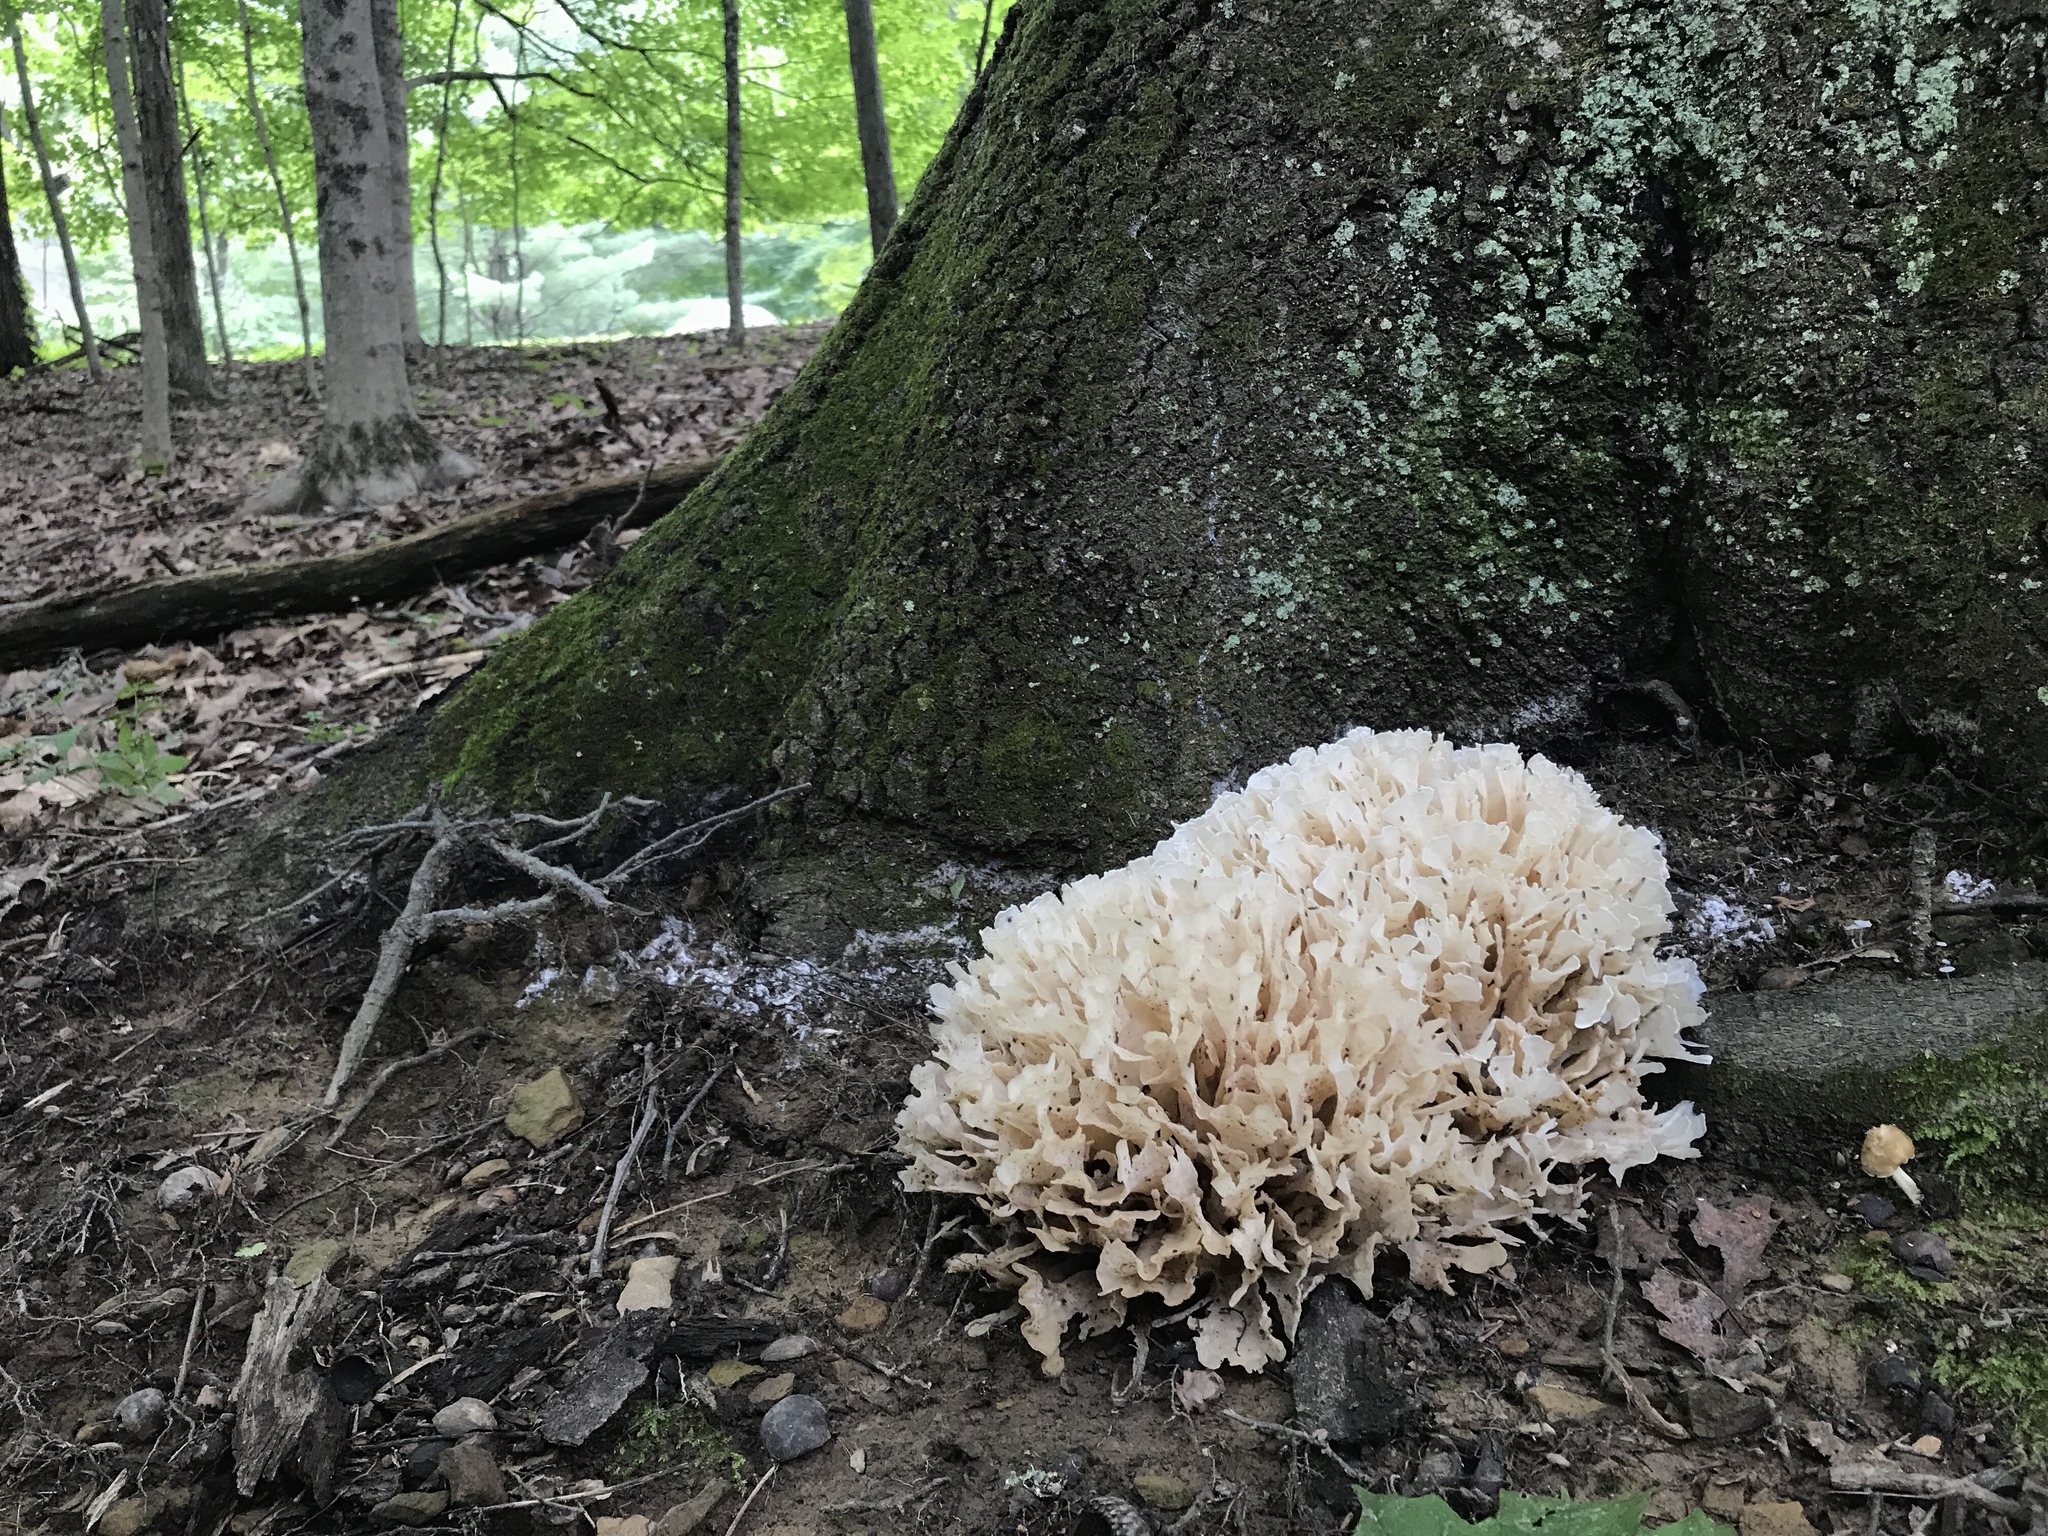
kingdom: Fungi
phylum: Basidiomycota
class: Agaricomycetes
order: Polyporales
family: Sparassidaceae
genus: Sparassis
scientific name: Sparassis spathulata
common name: Eastern cauliflower mushroom
